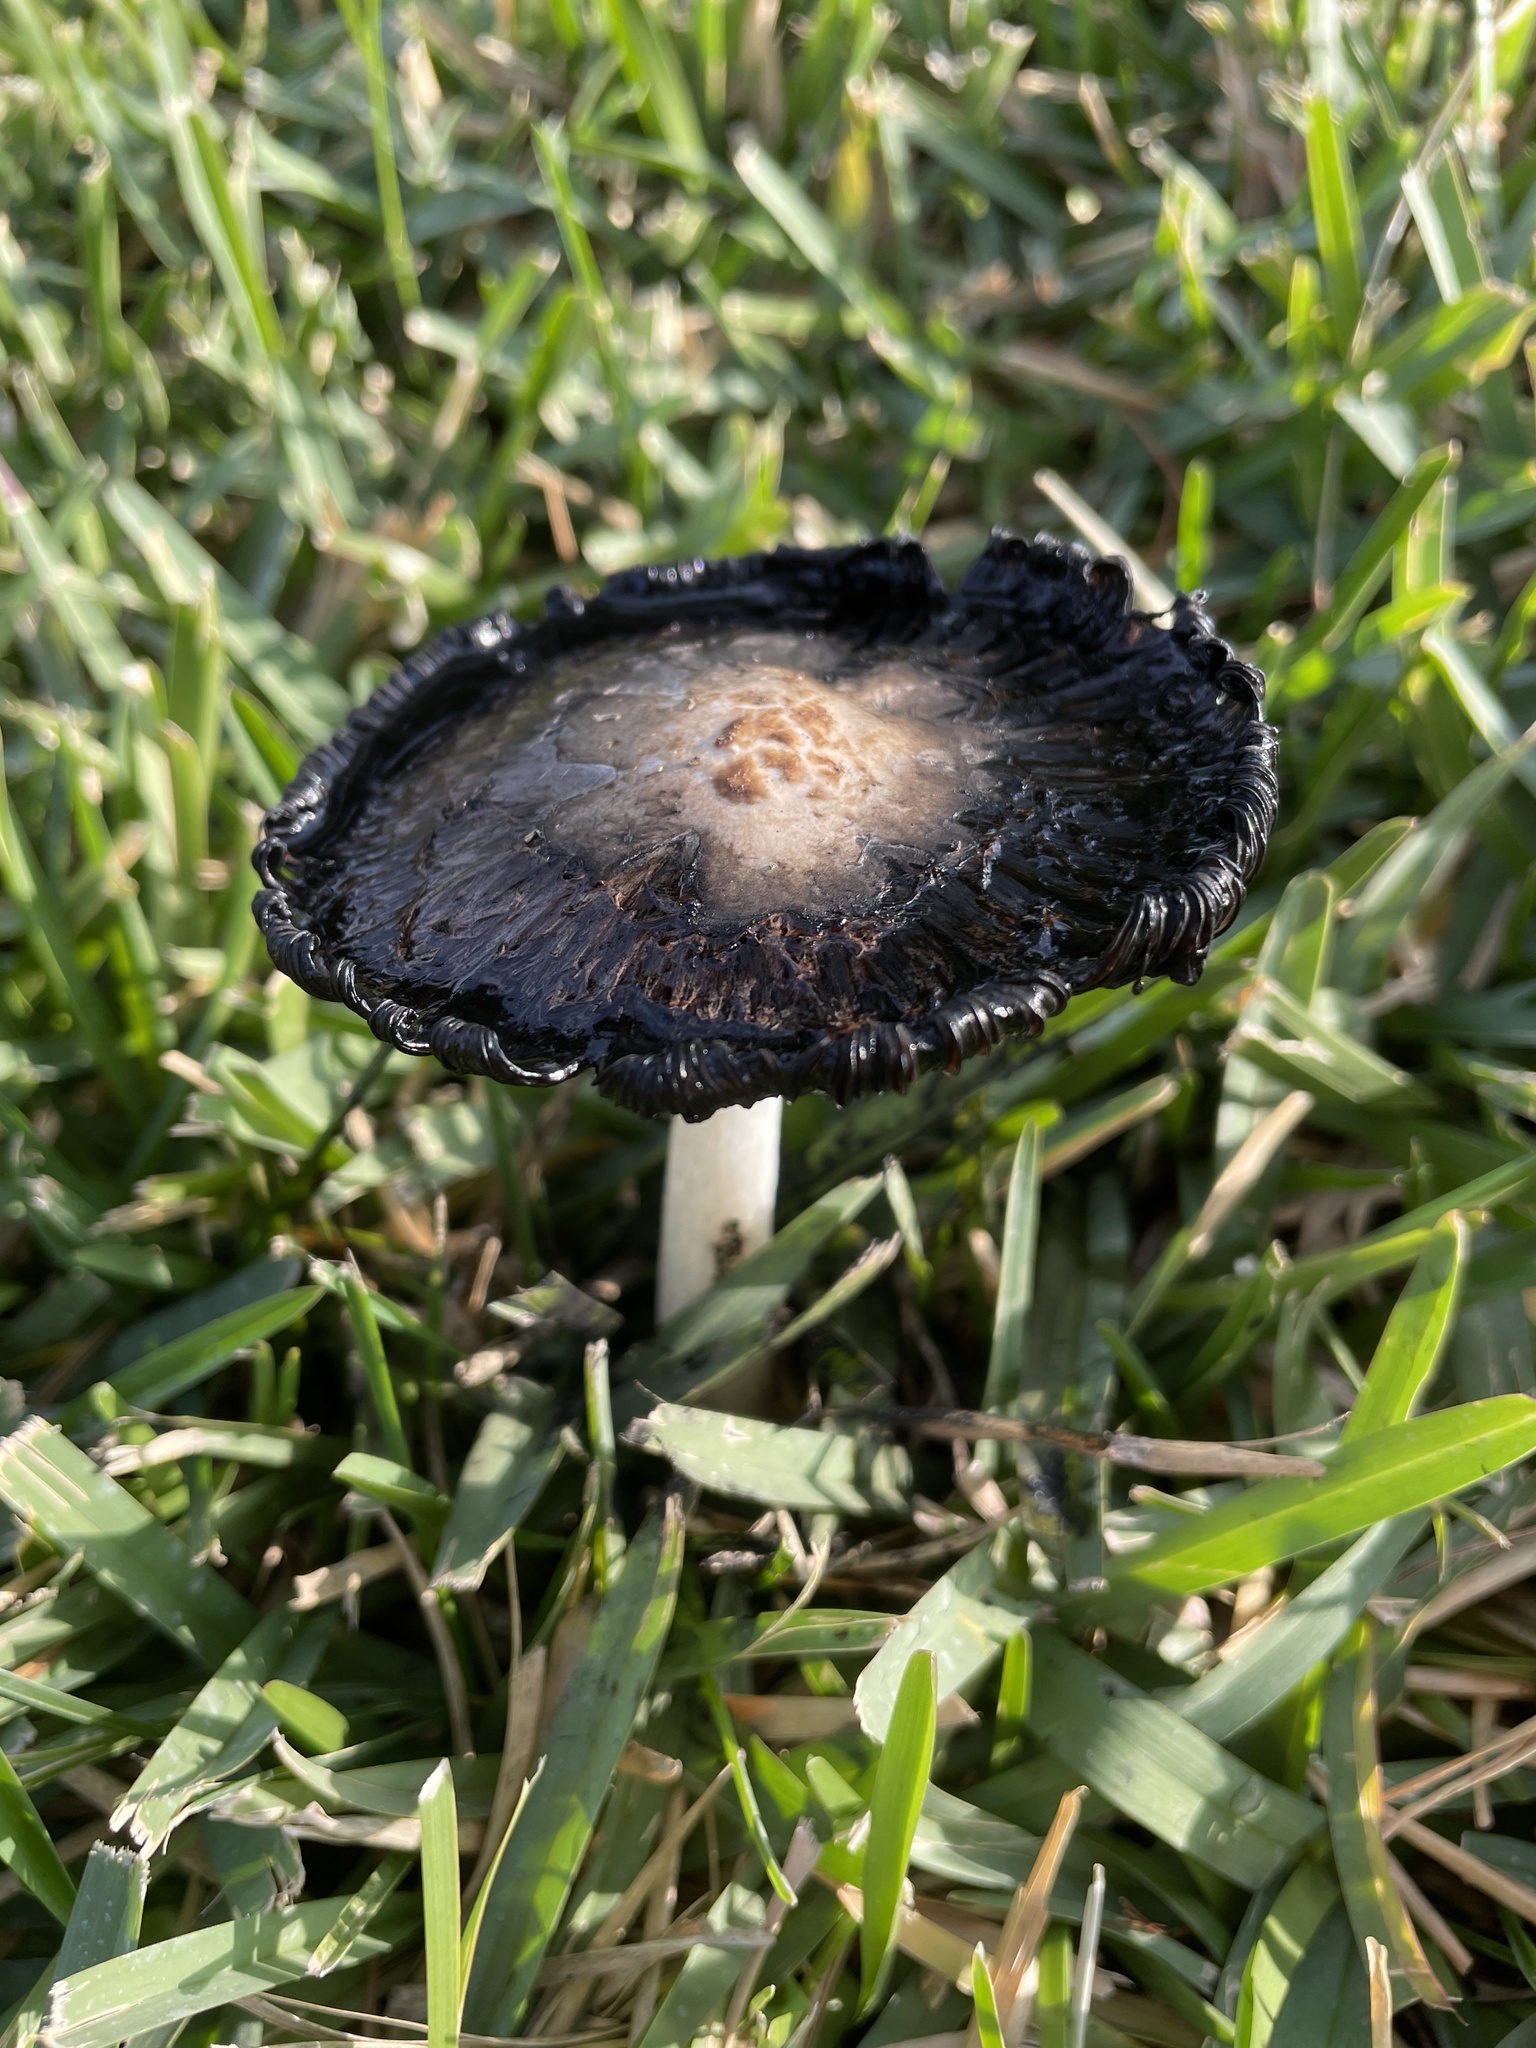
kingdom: Fungi
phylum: Basidiomycota
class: Agaricomycetes
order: Agaricales
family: Agaricaceae
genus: Coprinus
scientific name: Coprinus comatus
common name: Lawyer's wig
